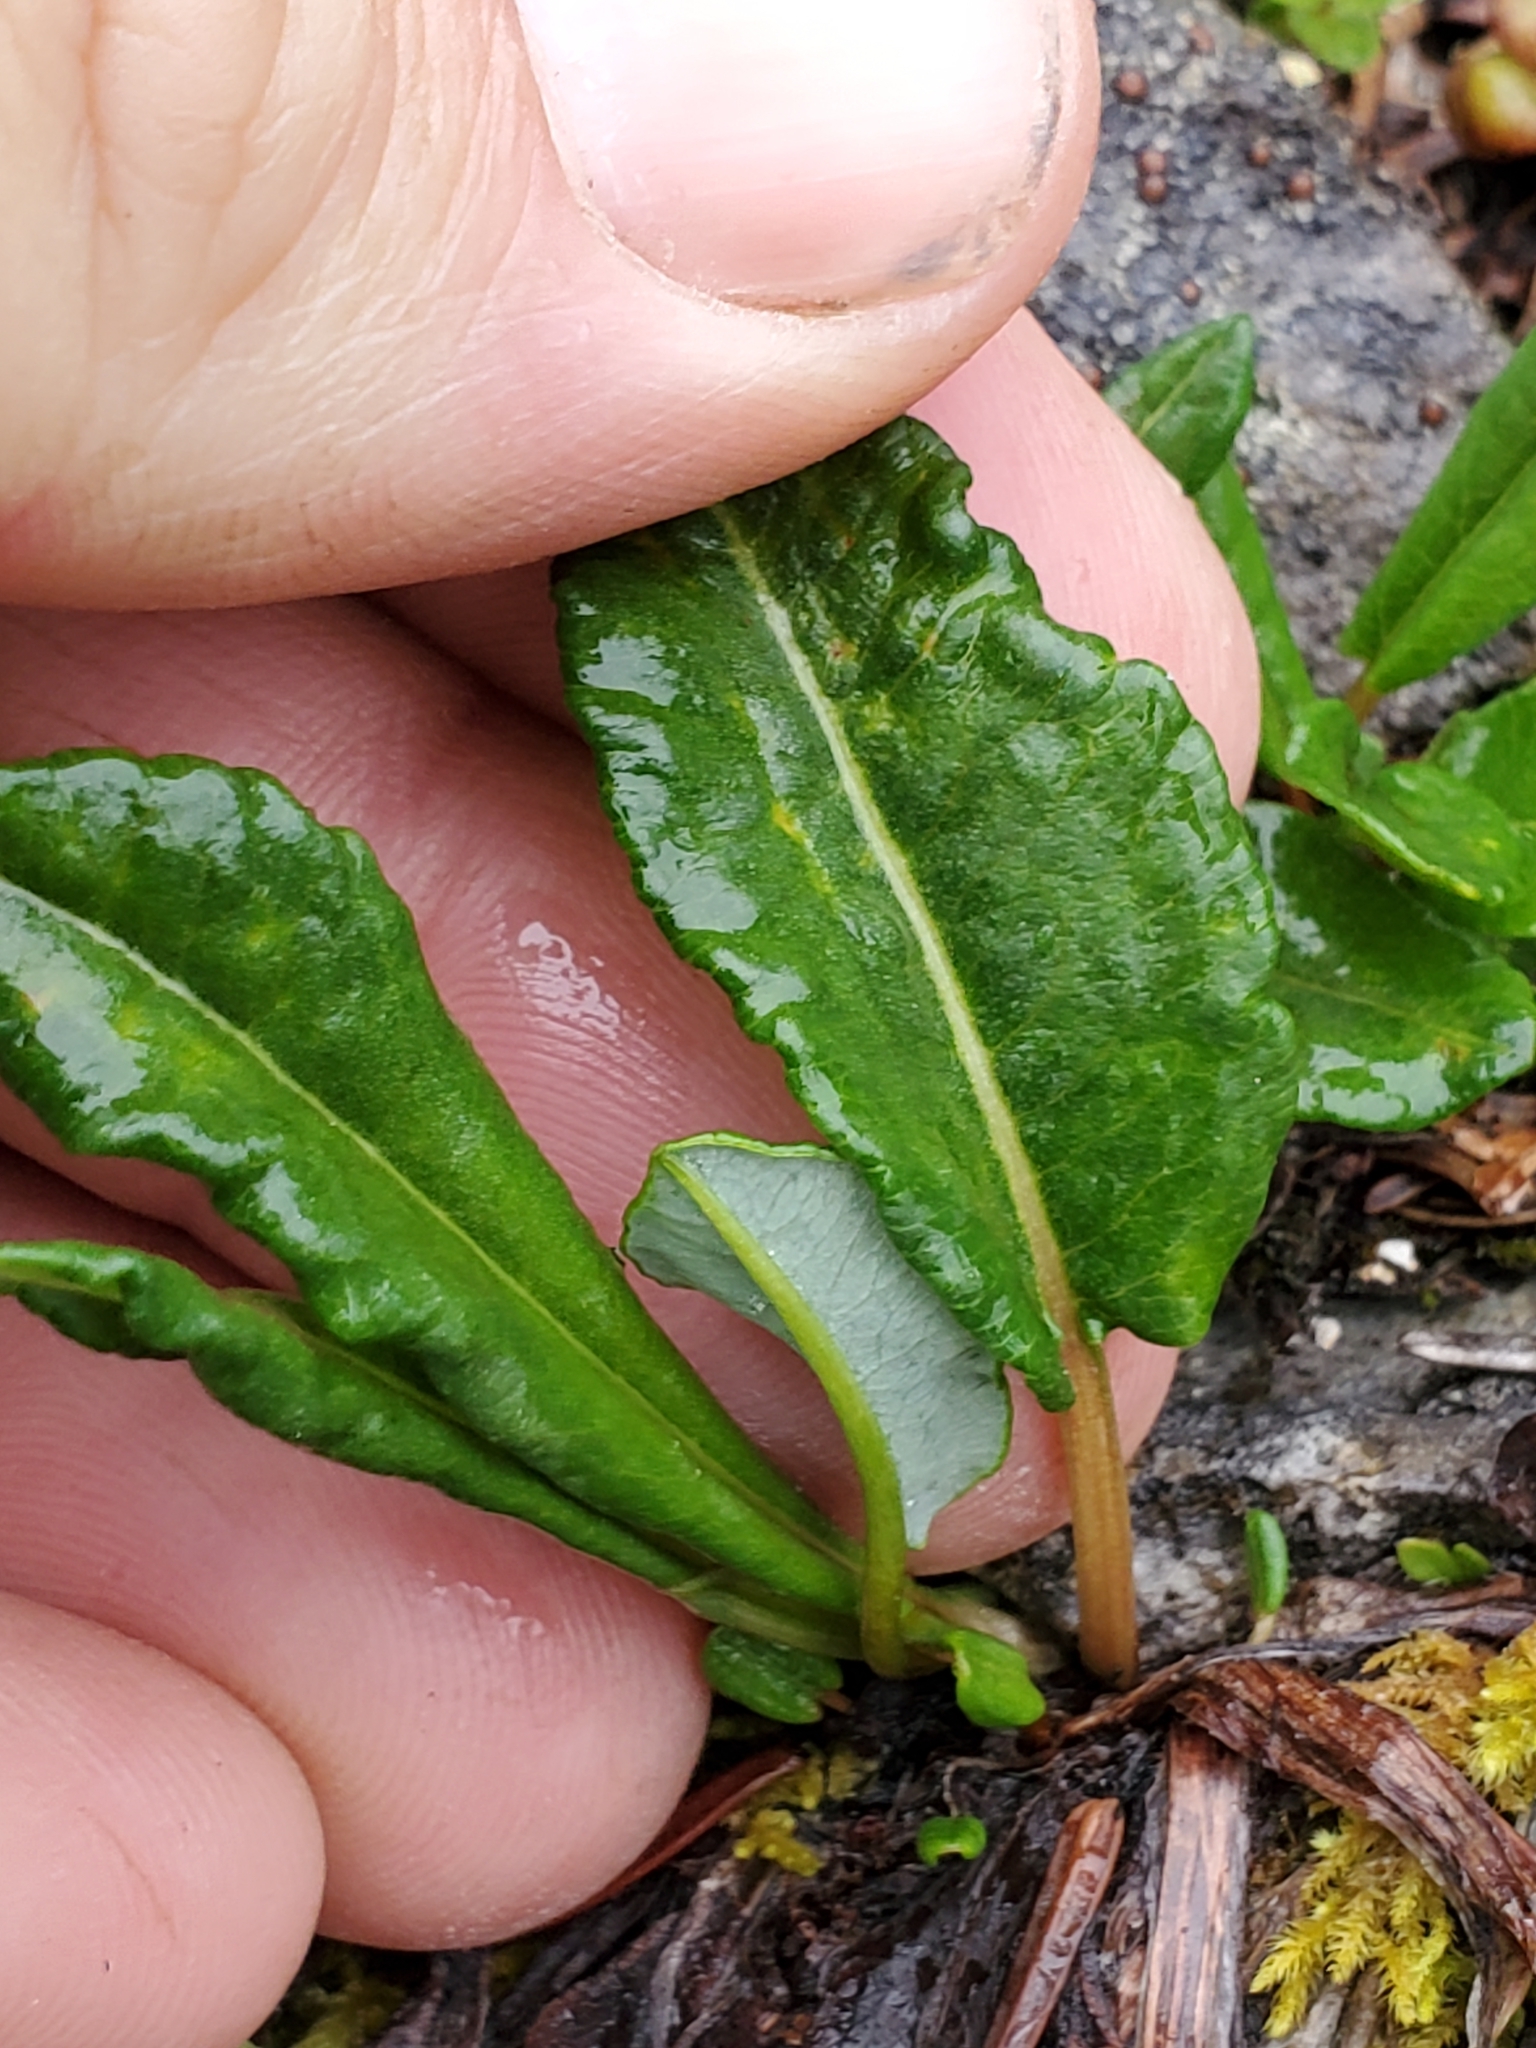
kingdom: Plantae
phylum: Tracheophyta
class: Magnoliopsida
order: Caryophyllales
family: Polygonaceae
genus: Bistorta
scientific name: Bistorta vivipara
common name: Alpine bistort
